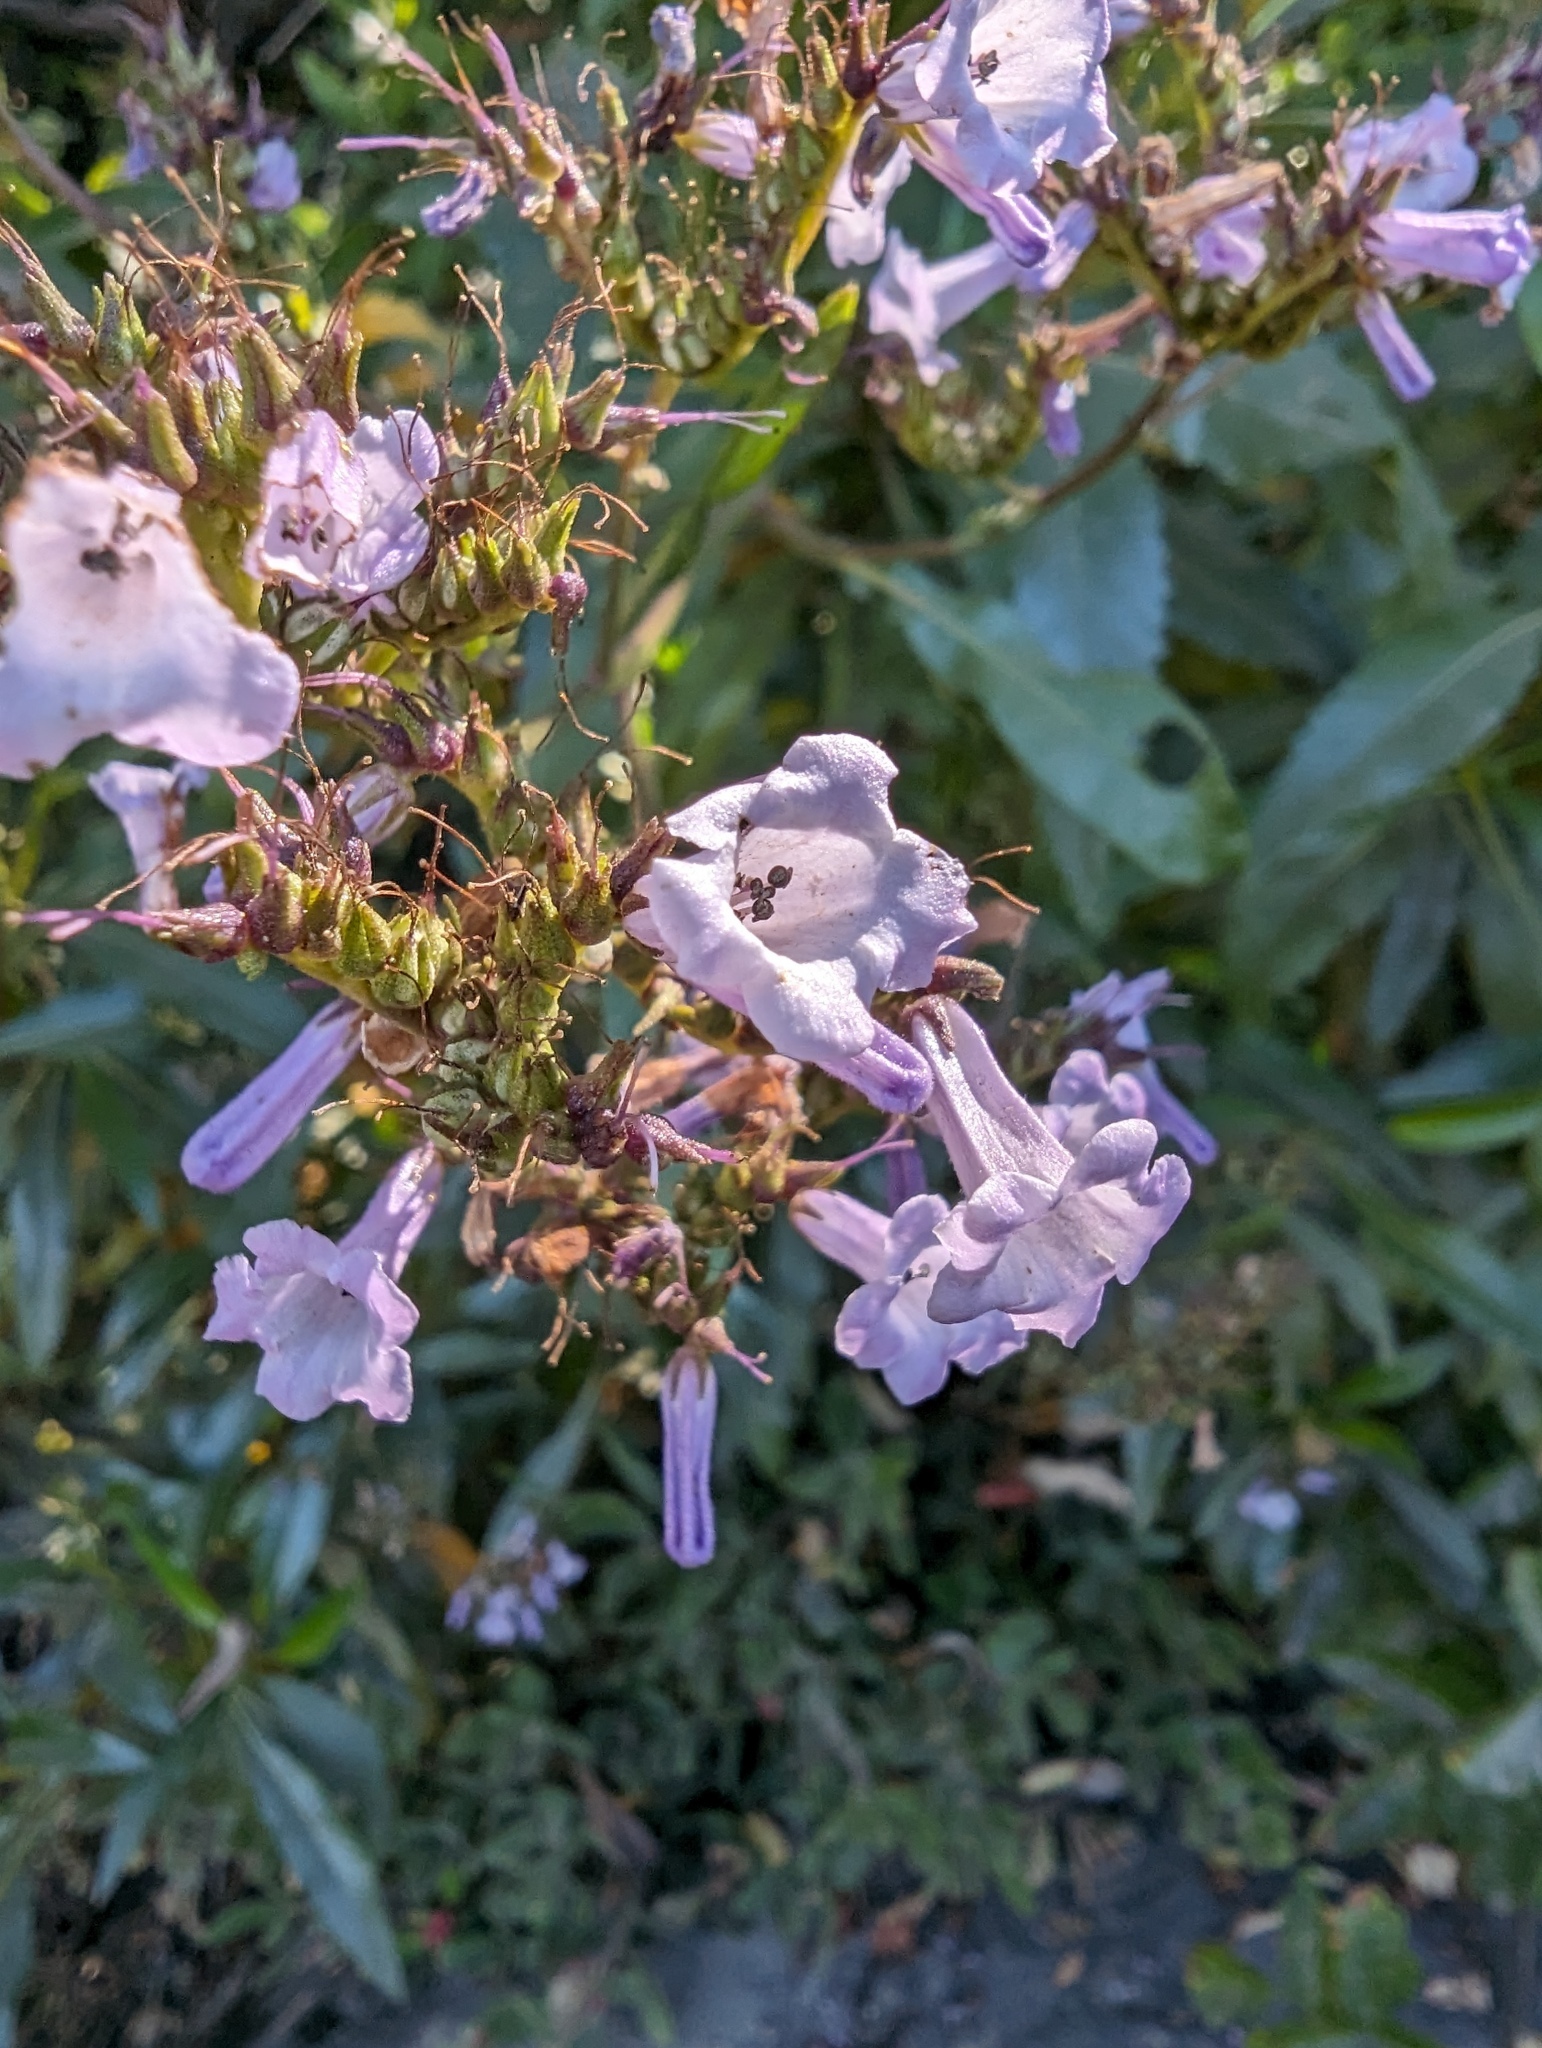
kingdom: Plantae
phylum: Tracheophyta
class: Magnoliopsida
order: Boraginales
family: Namaceae
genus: Eriodictyon
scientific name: Eriodictyon californicum
